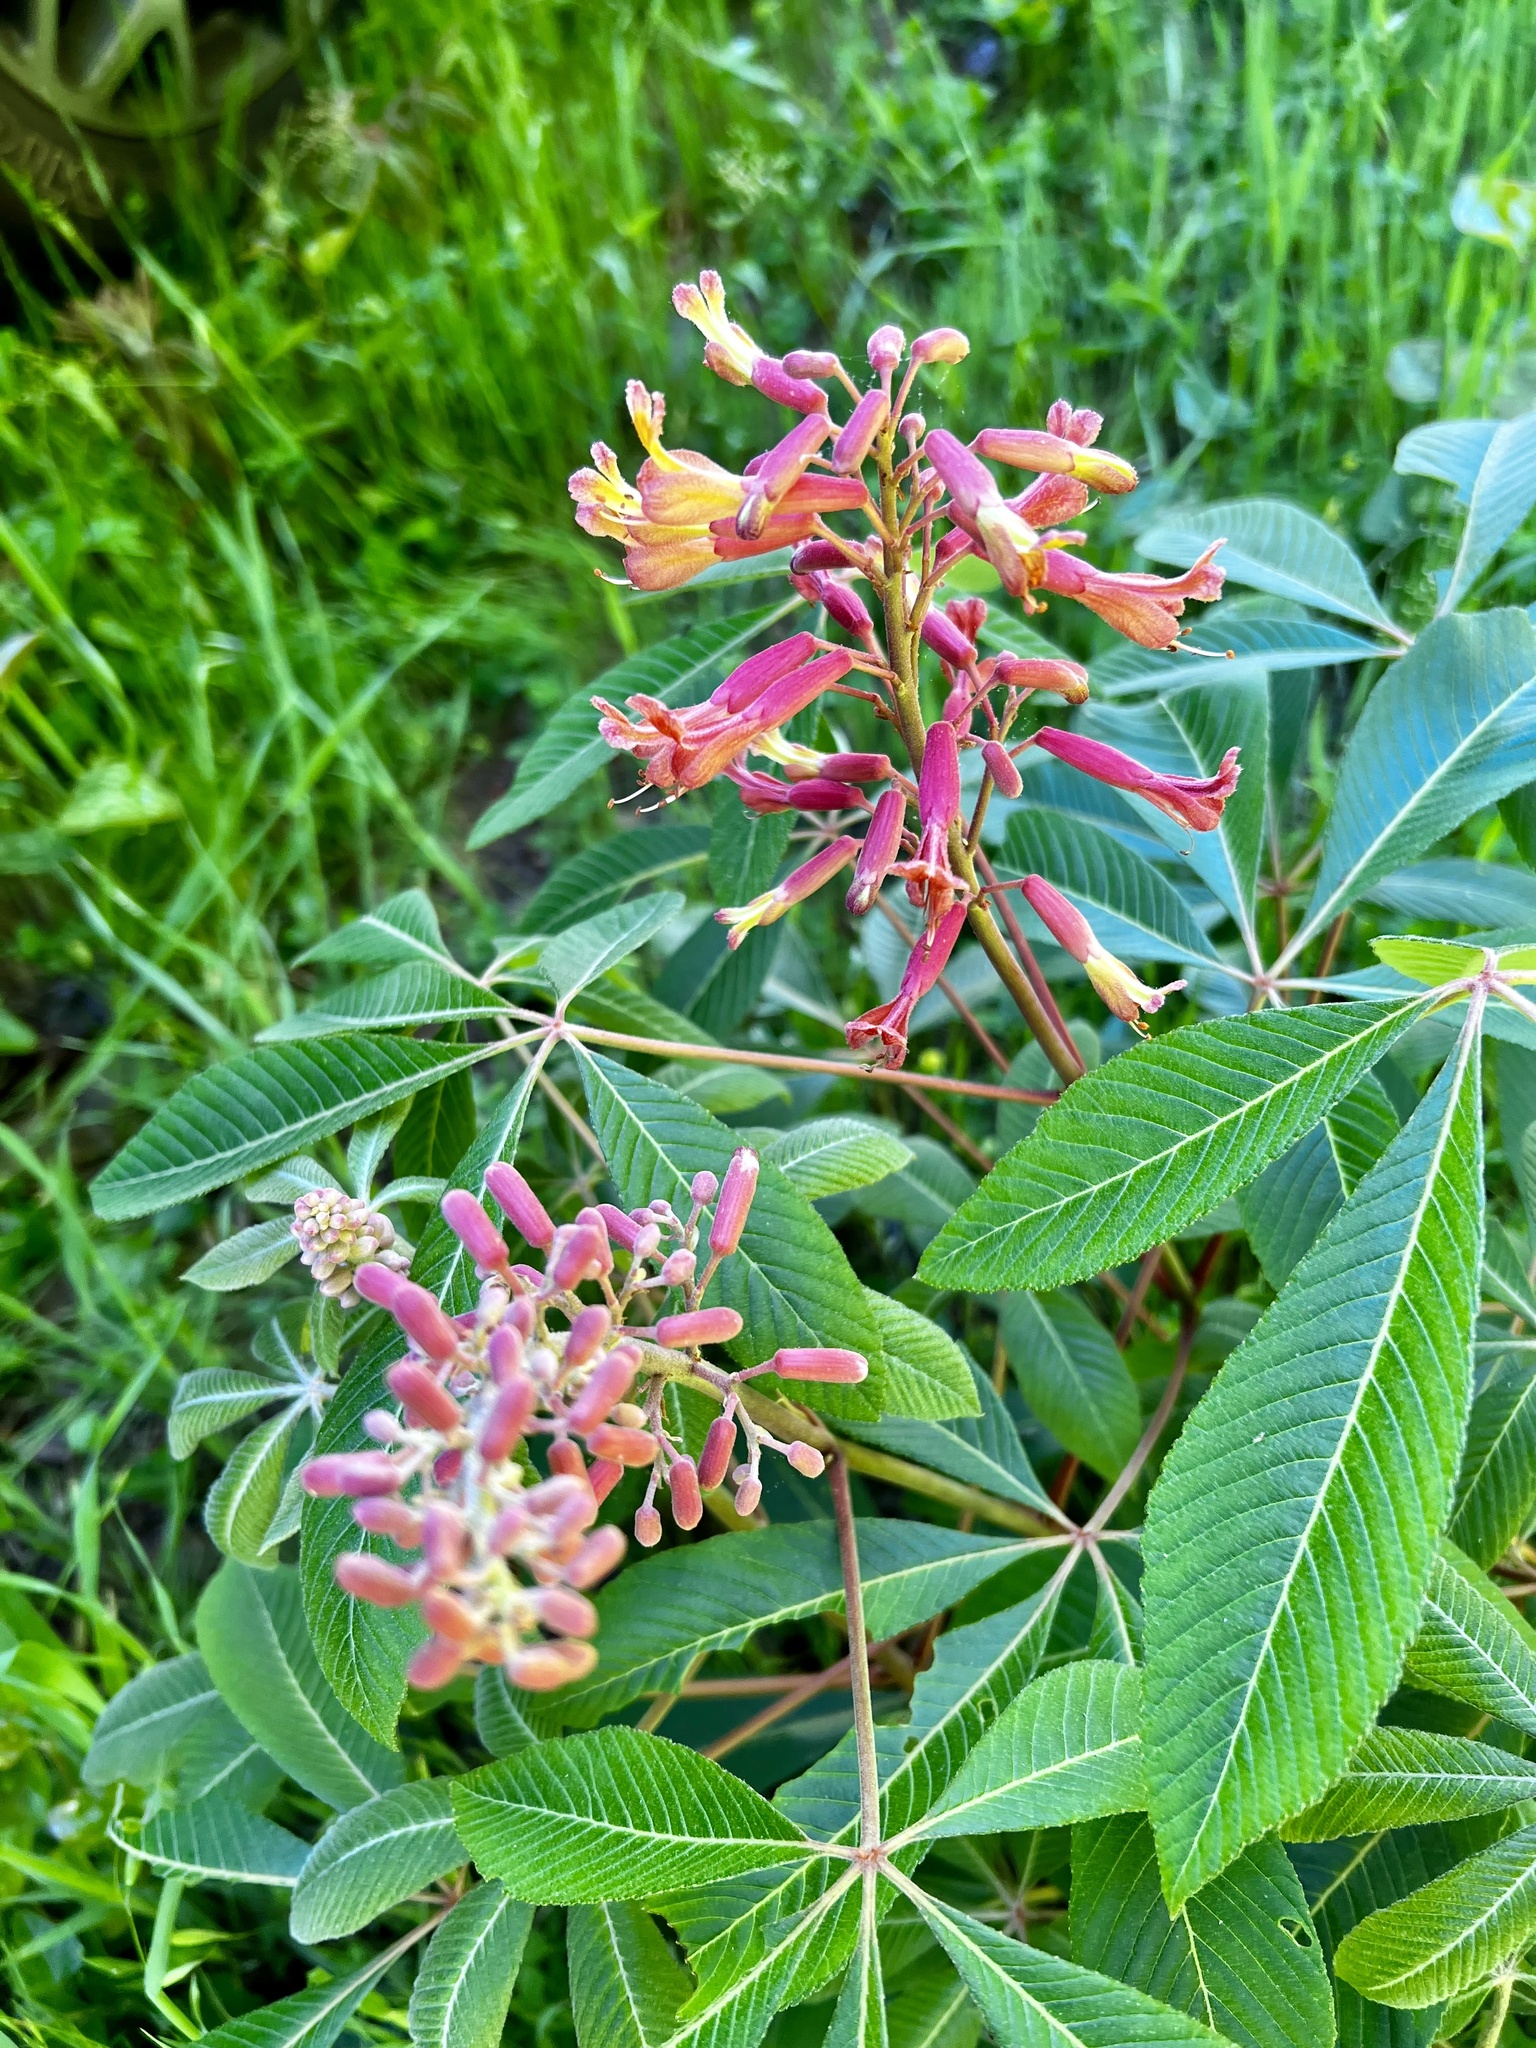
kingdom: Plantae
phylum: Tracheophyta
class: Magnoliopsida
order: Sapindales
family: Sapindaceae
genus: Aesculus
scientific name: Aesculus pavia
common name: Red buckeye
